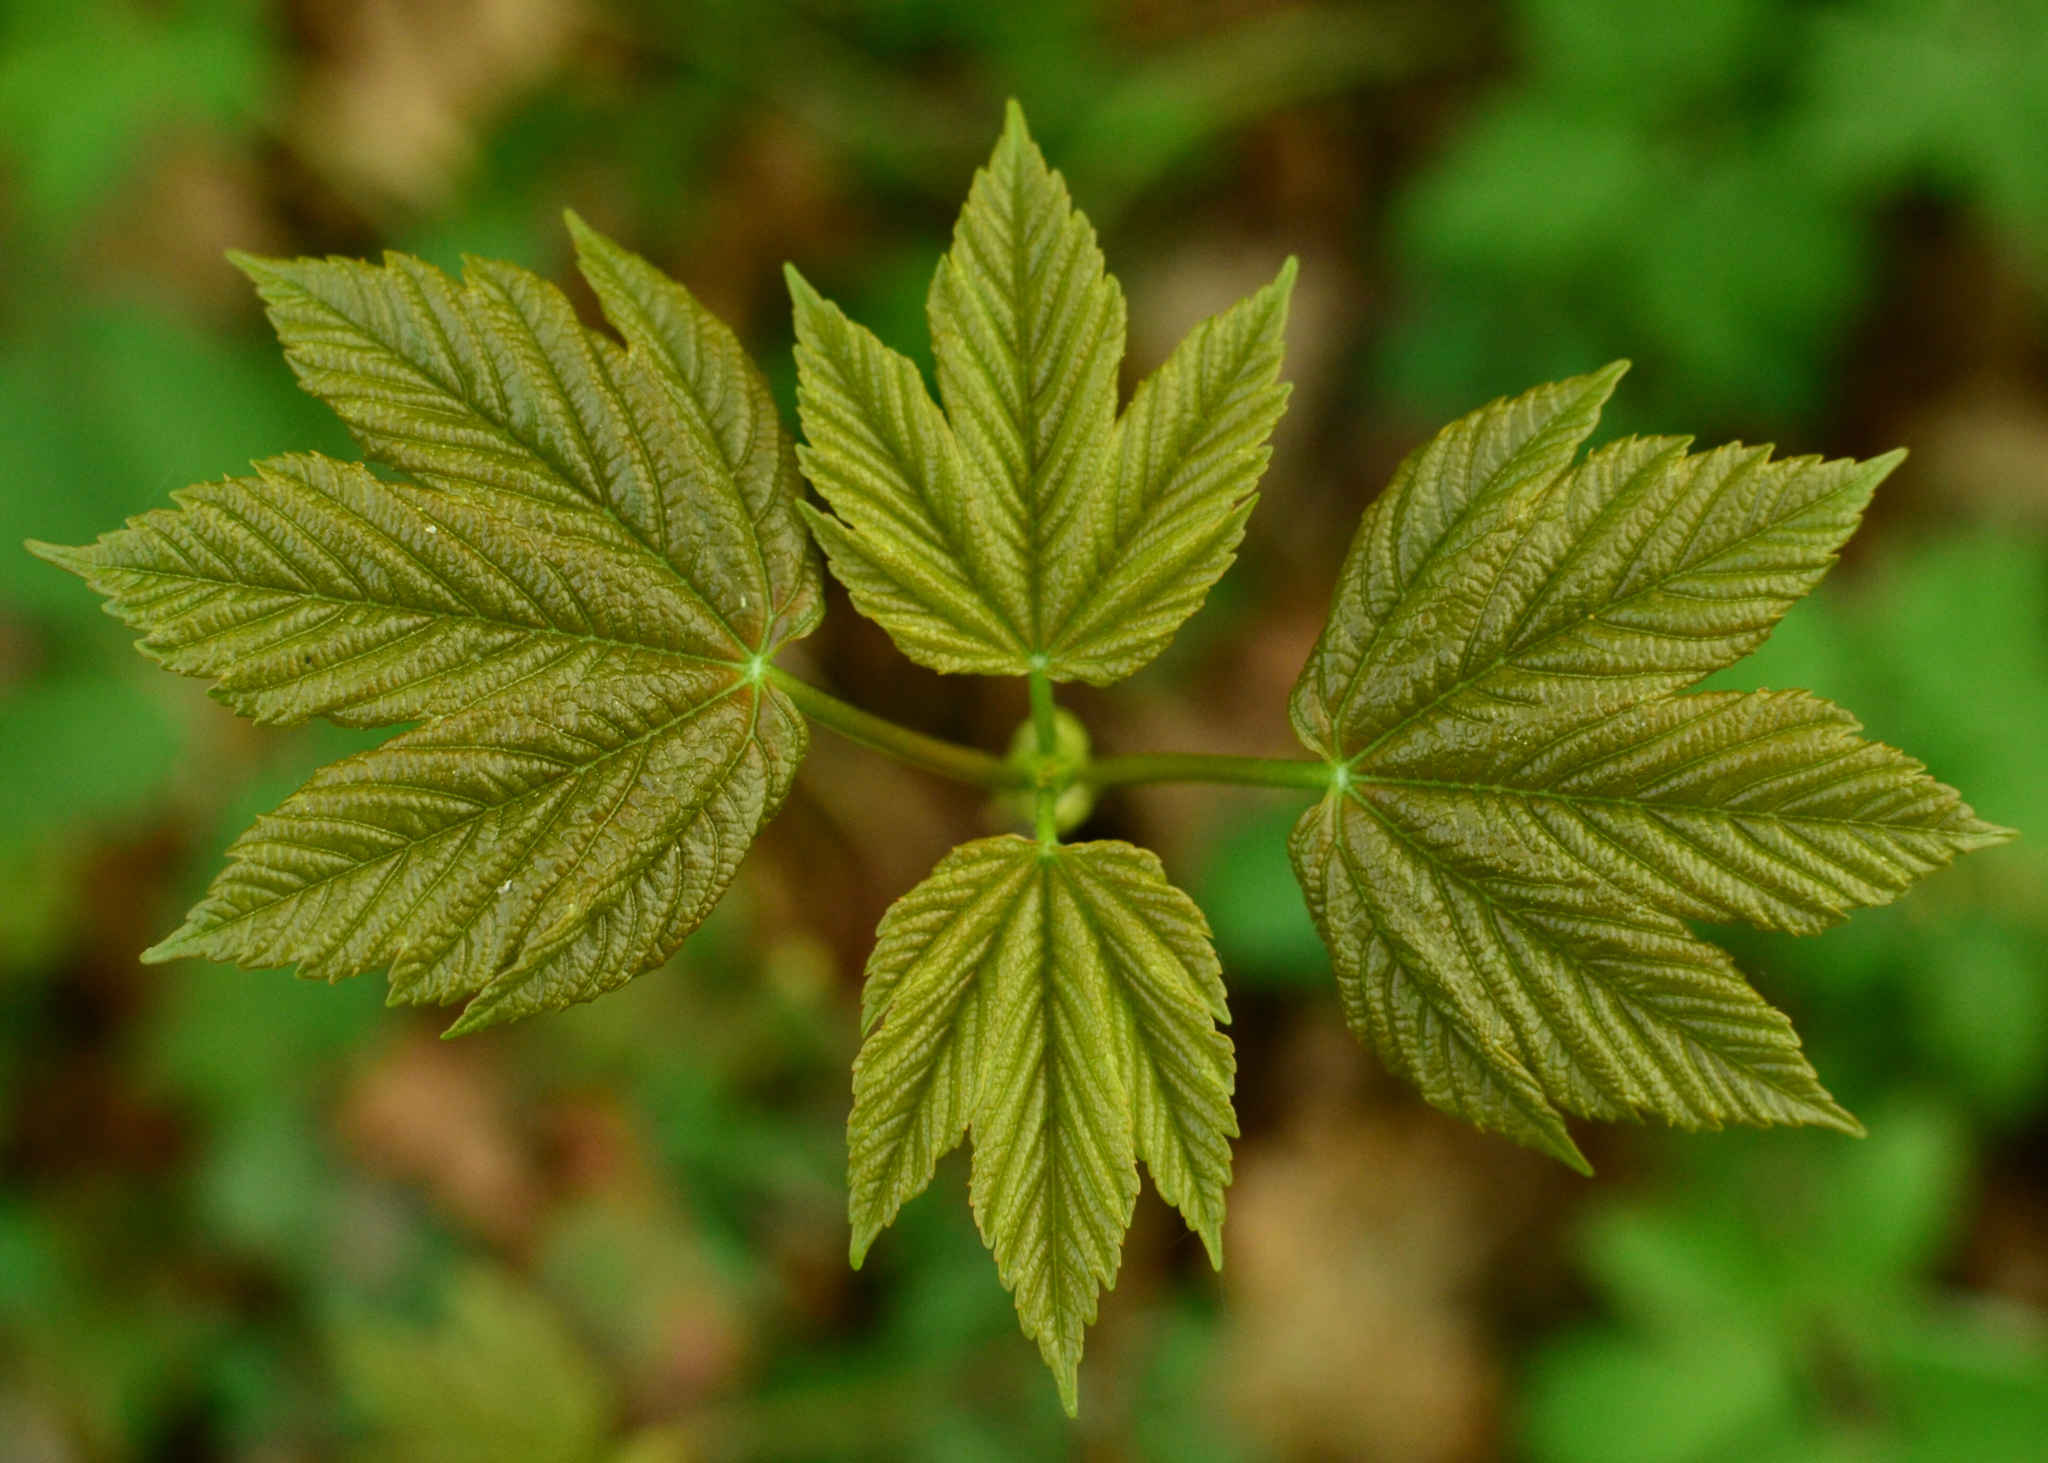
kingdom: Plantae
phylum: Tracheophyta
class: Magnoliopsida
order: Sapindales
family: Sapindaceae
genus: Acer
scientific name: Acer pseudoplatanus
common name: Sycamore
